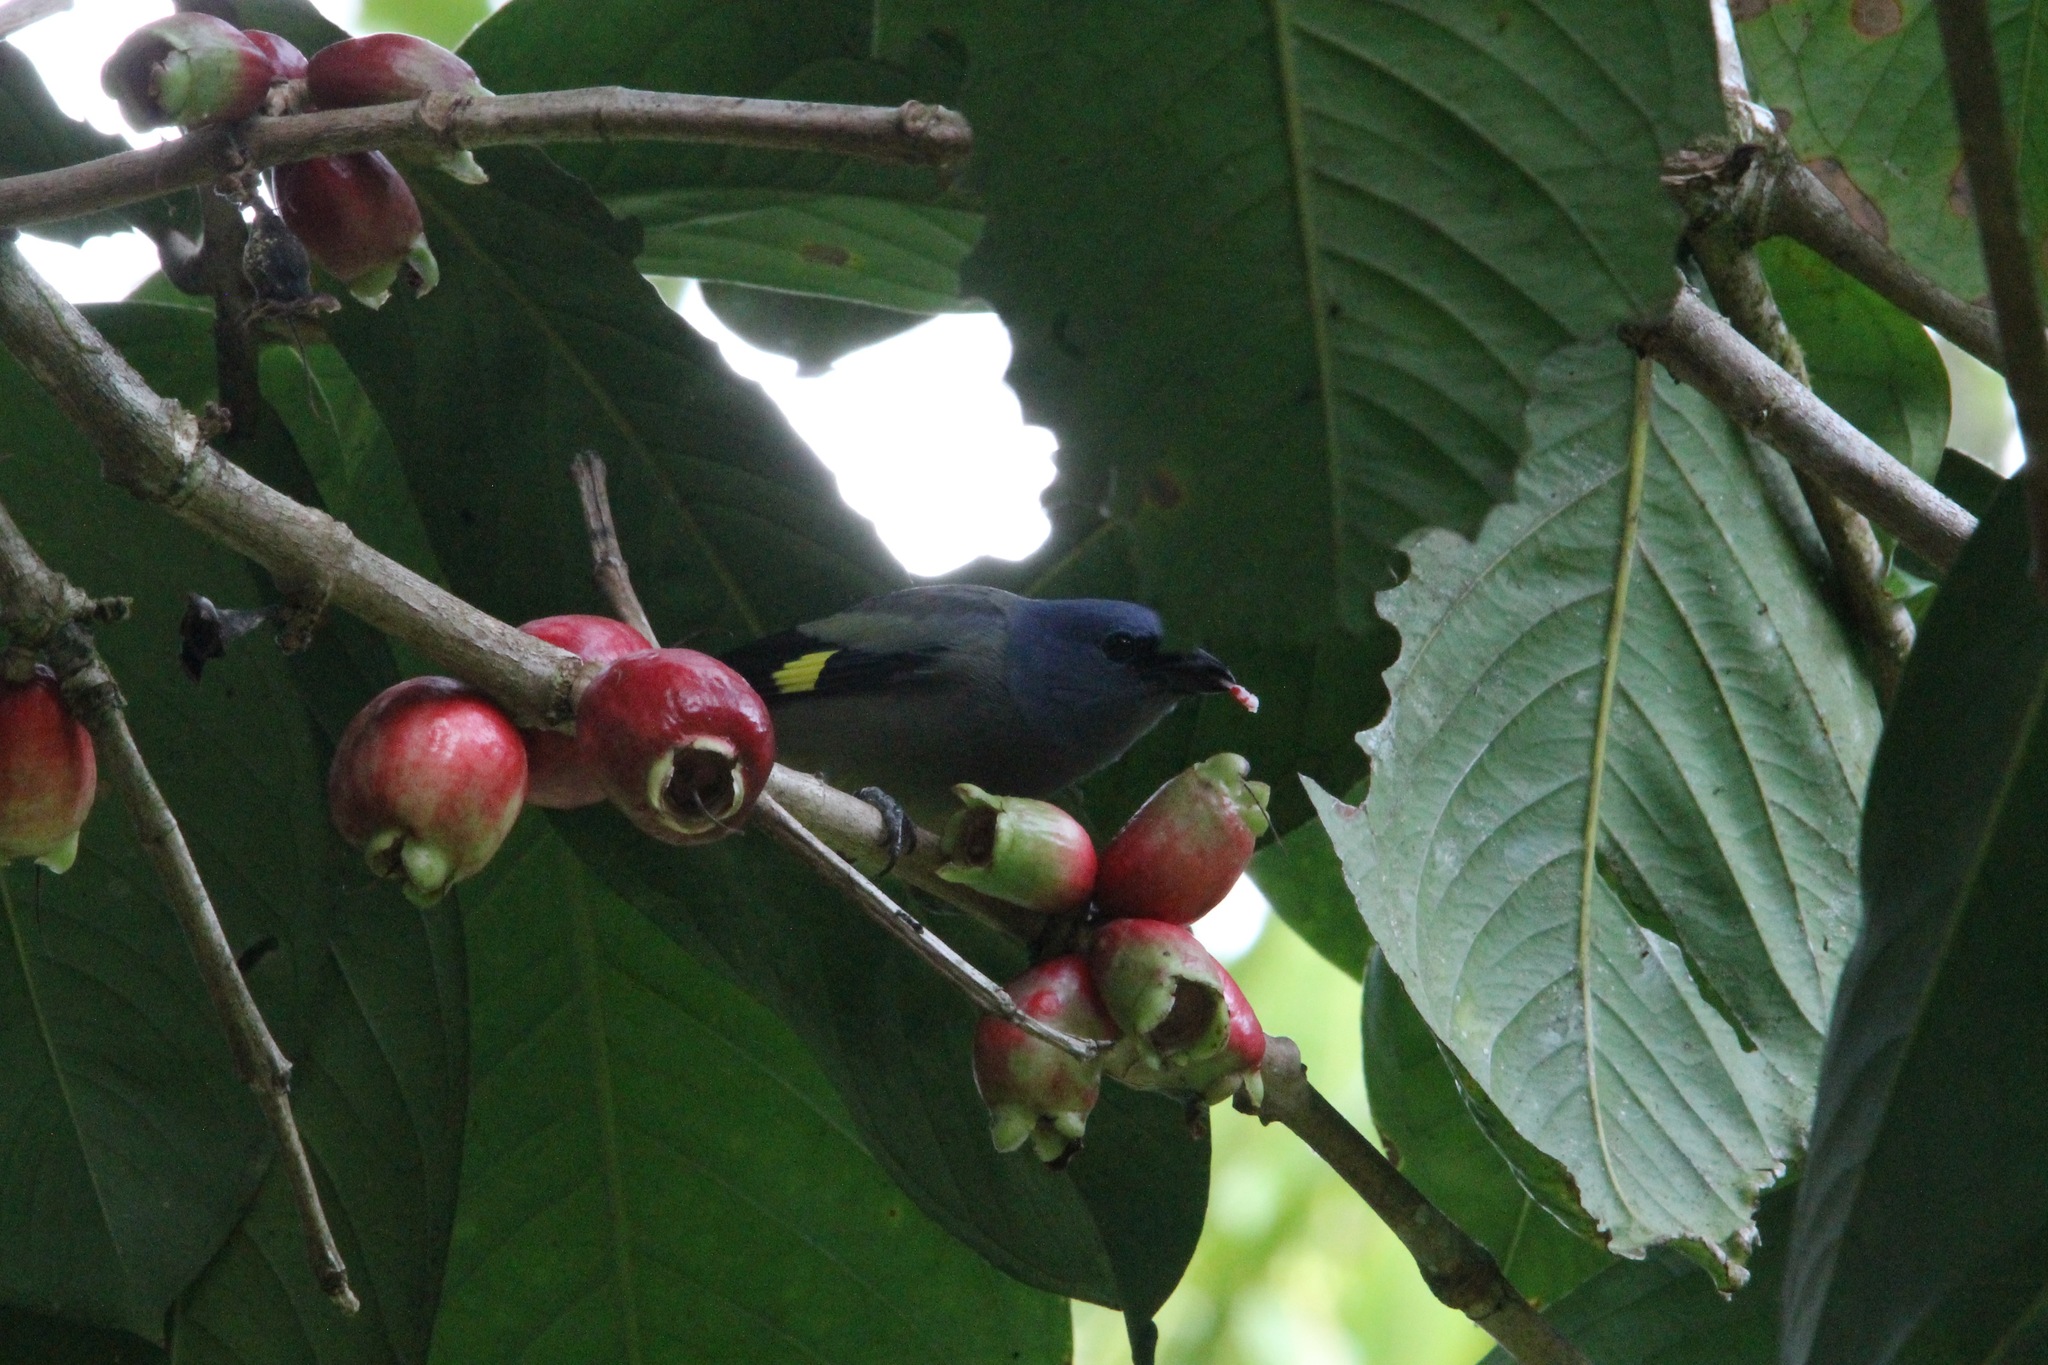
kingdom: Animalia
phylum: Chordata
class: Aves
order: Passeriformes
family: Thraupidae
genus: Thraupis
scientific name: Thraupis abbas
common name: Yellow-winged tanager
